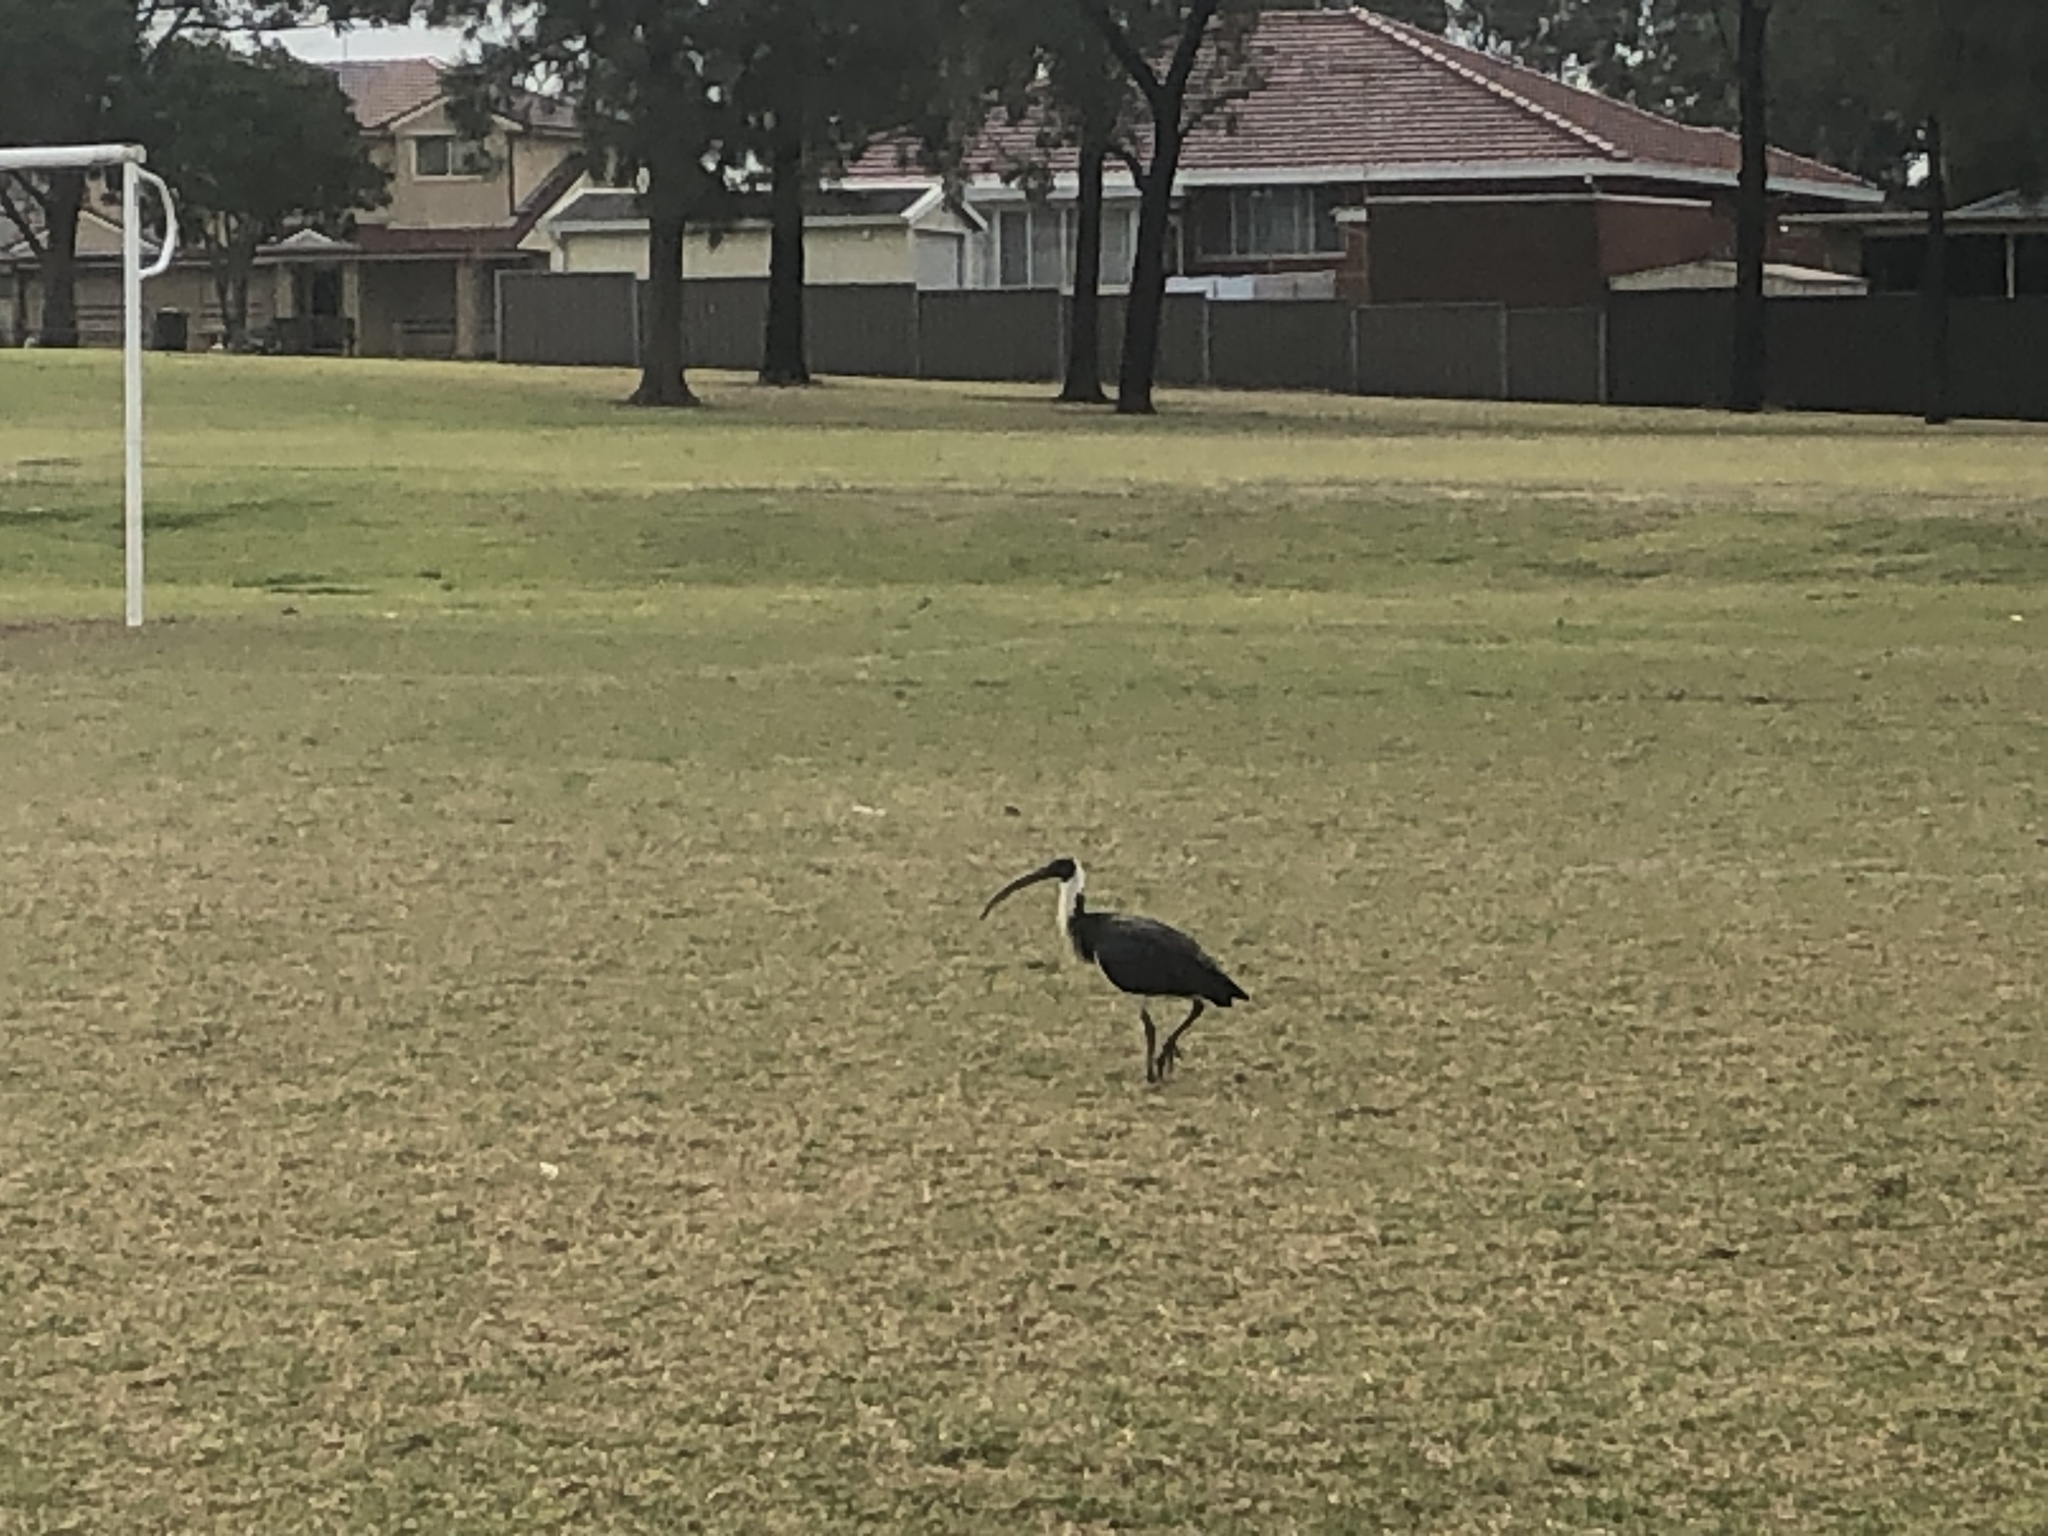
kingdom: Animalia
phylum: Chordata
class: Aves
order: Pelecaniformes
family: Threskiornithidae
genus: Threskiornis
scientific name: Threskiornis spinicollis
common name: Straw-necked ibis
